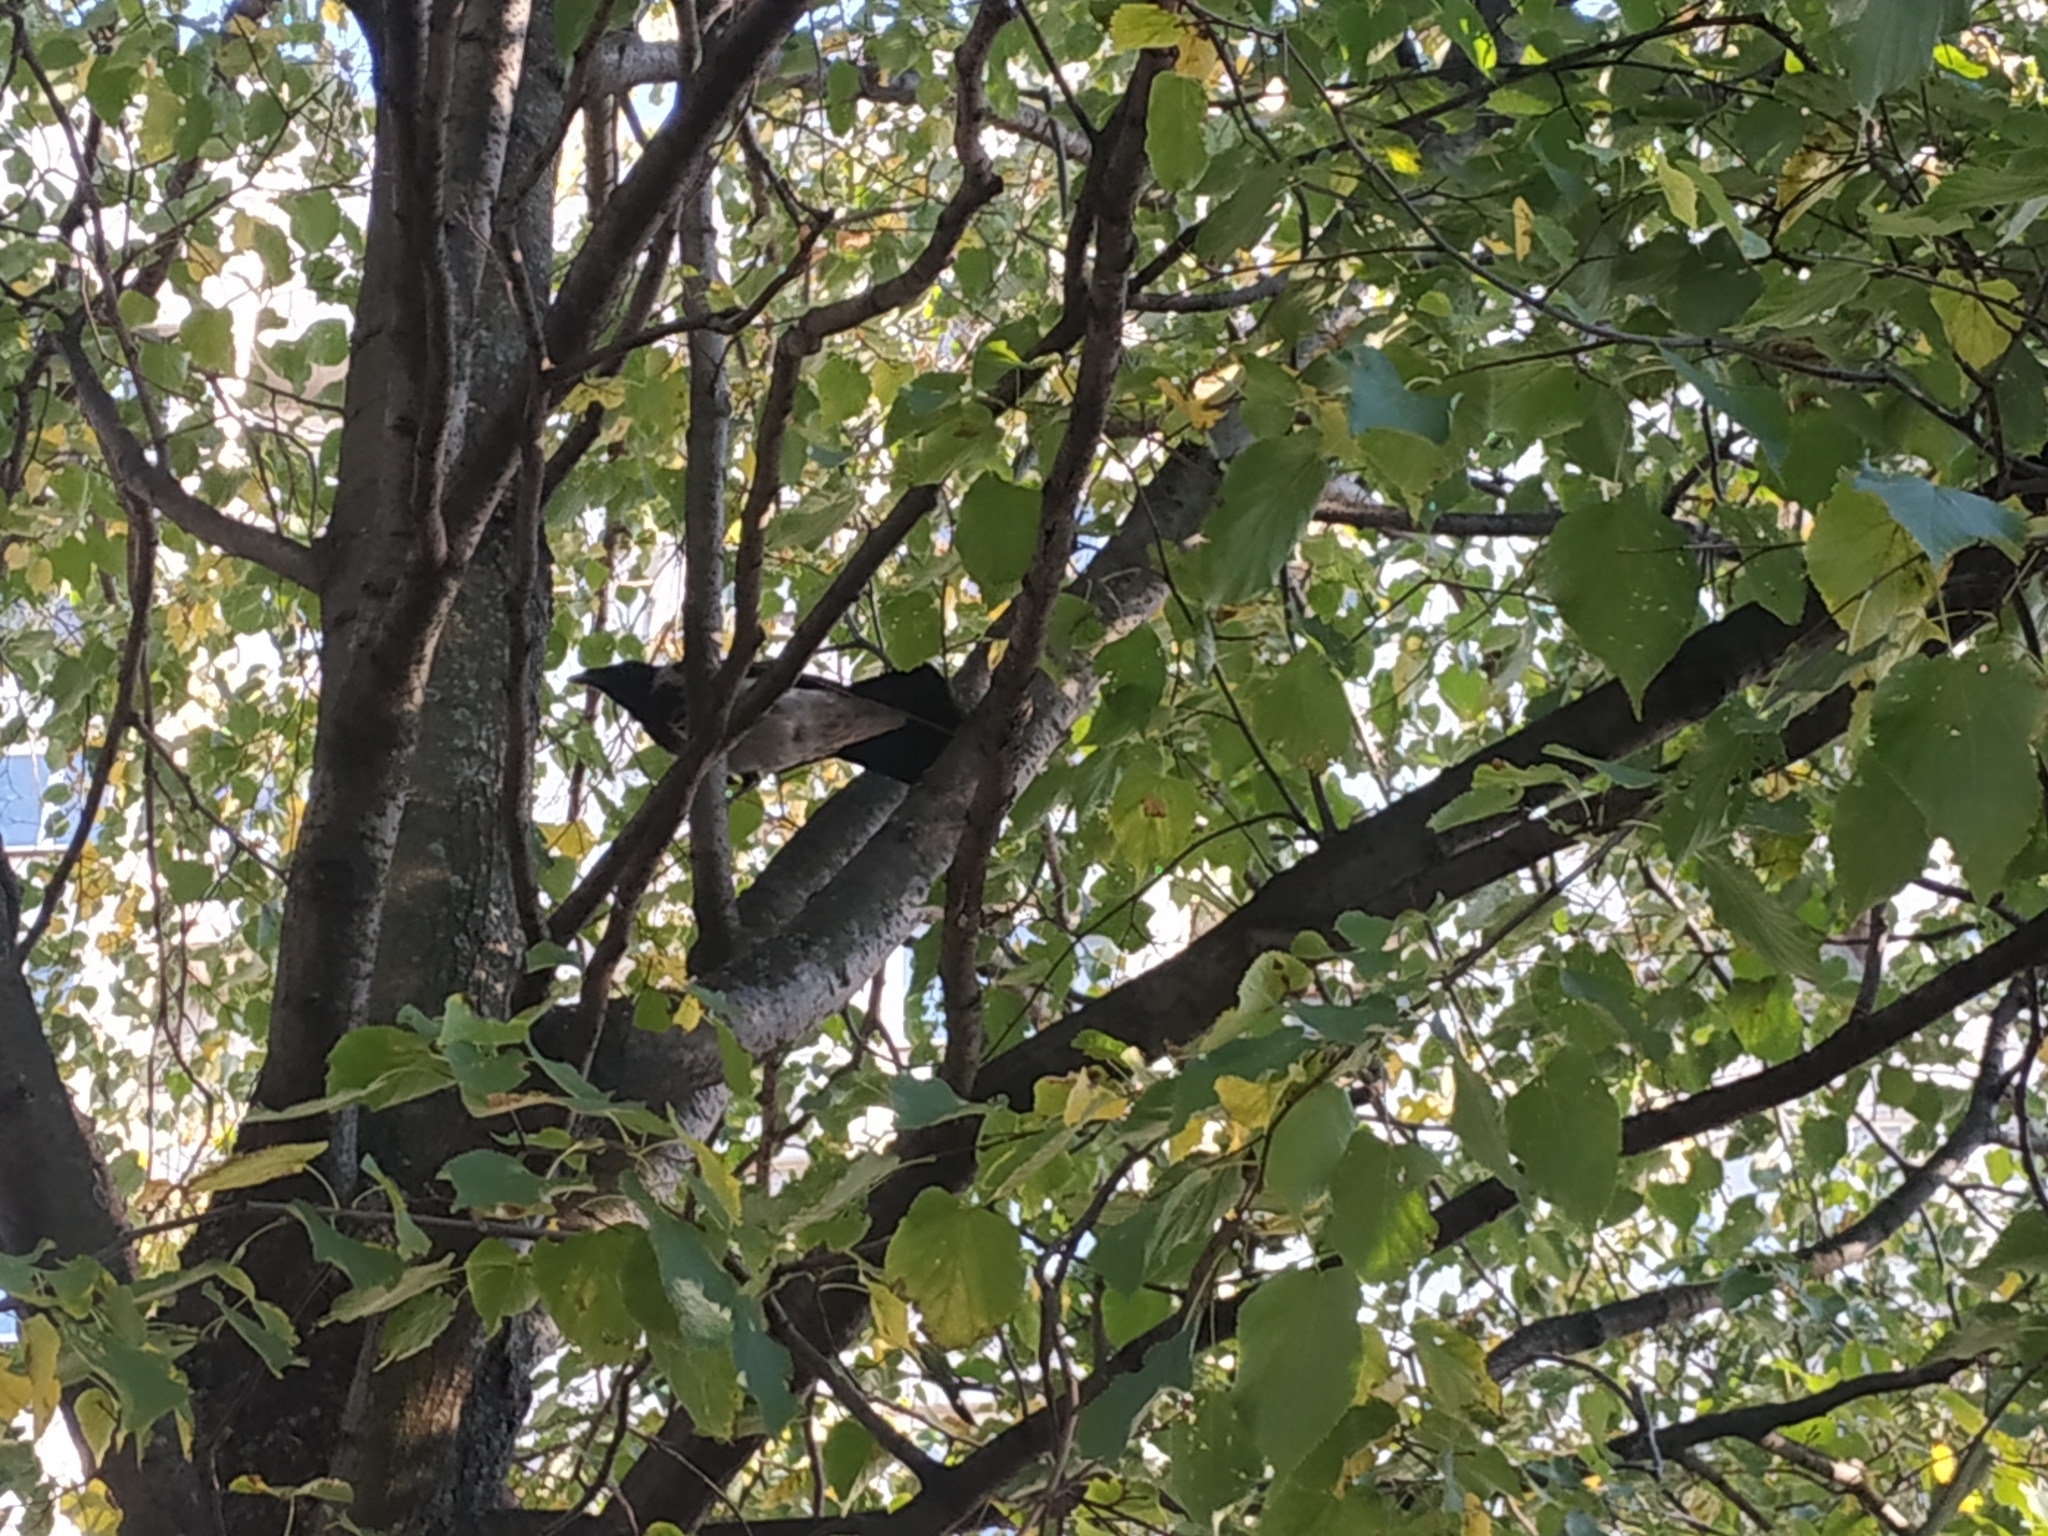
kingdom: Animalia
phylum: Chordata
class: Aves
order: Passeriformes
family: Corvidae
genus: Corvus
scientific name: Corvus cornix
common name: Hooded crow
